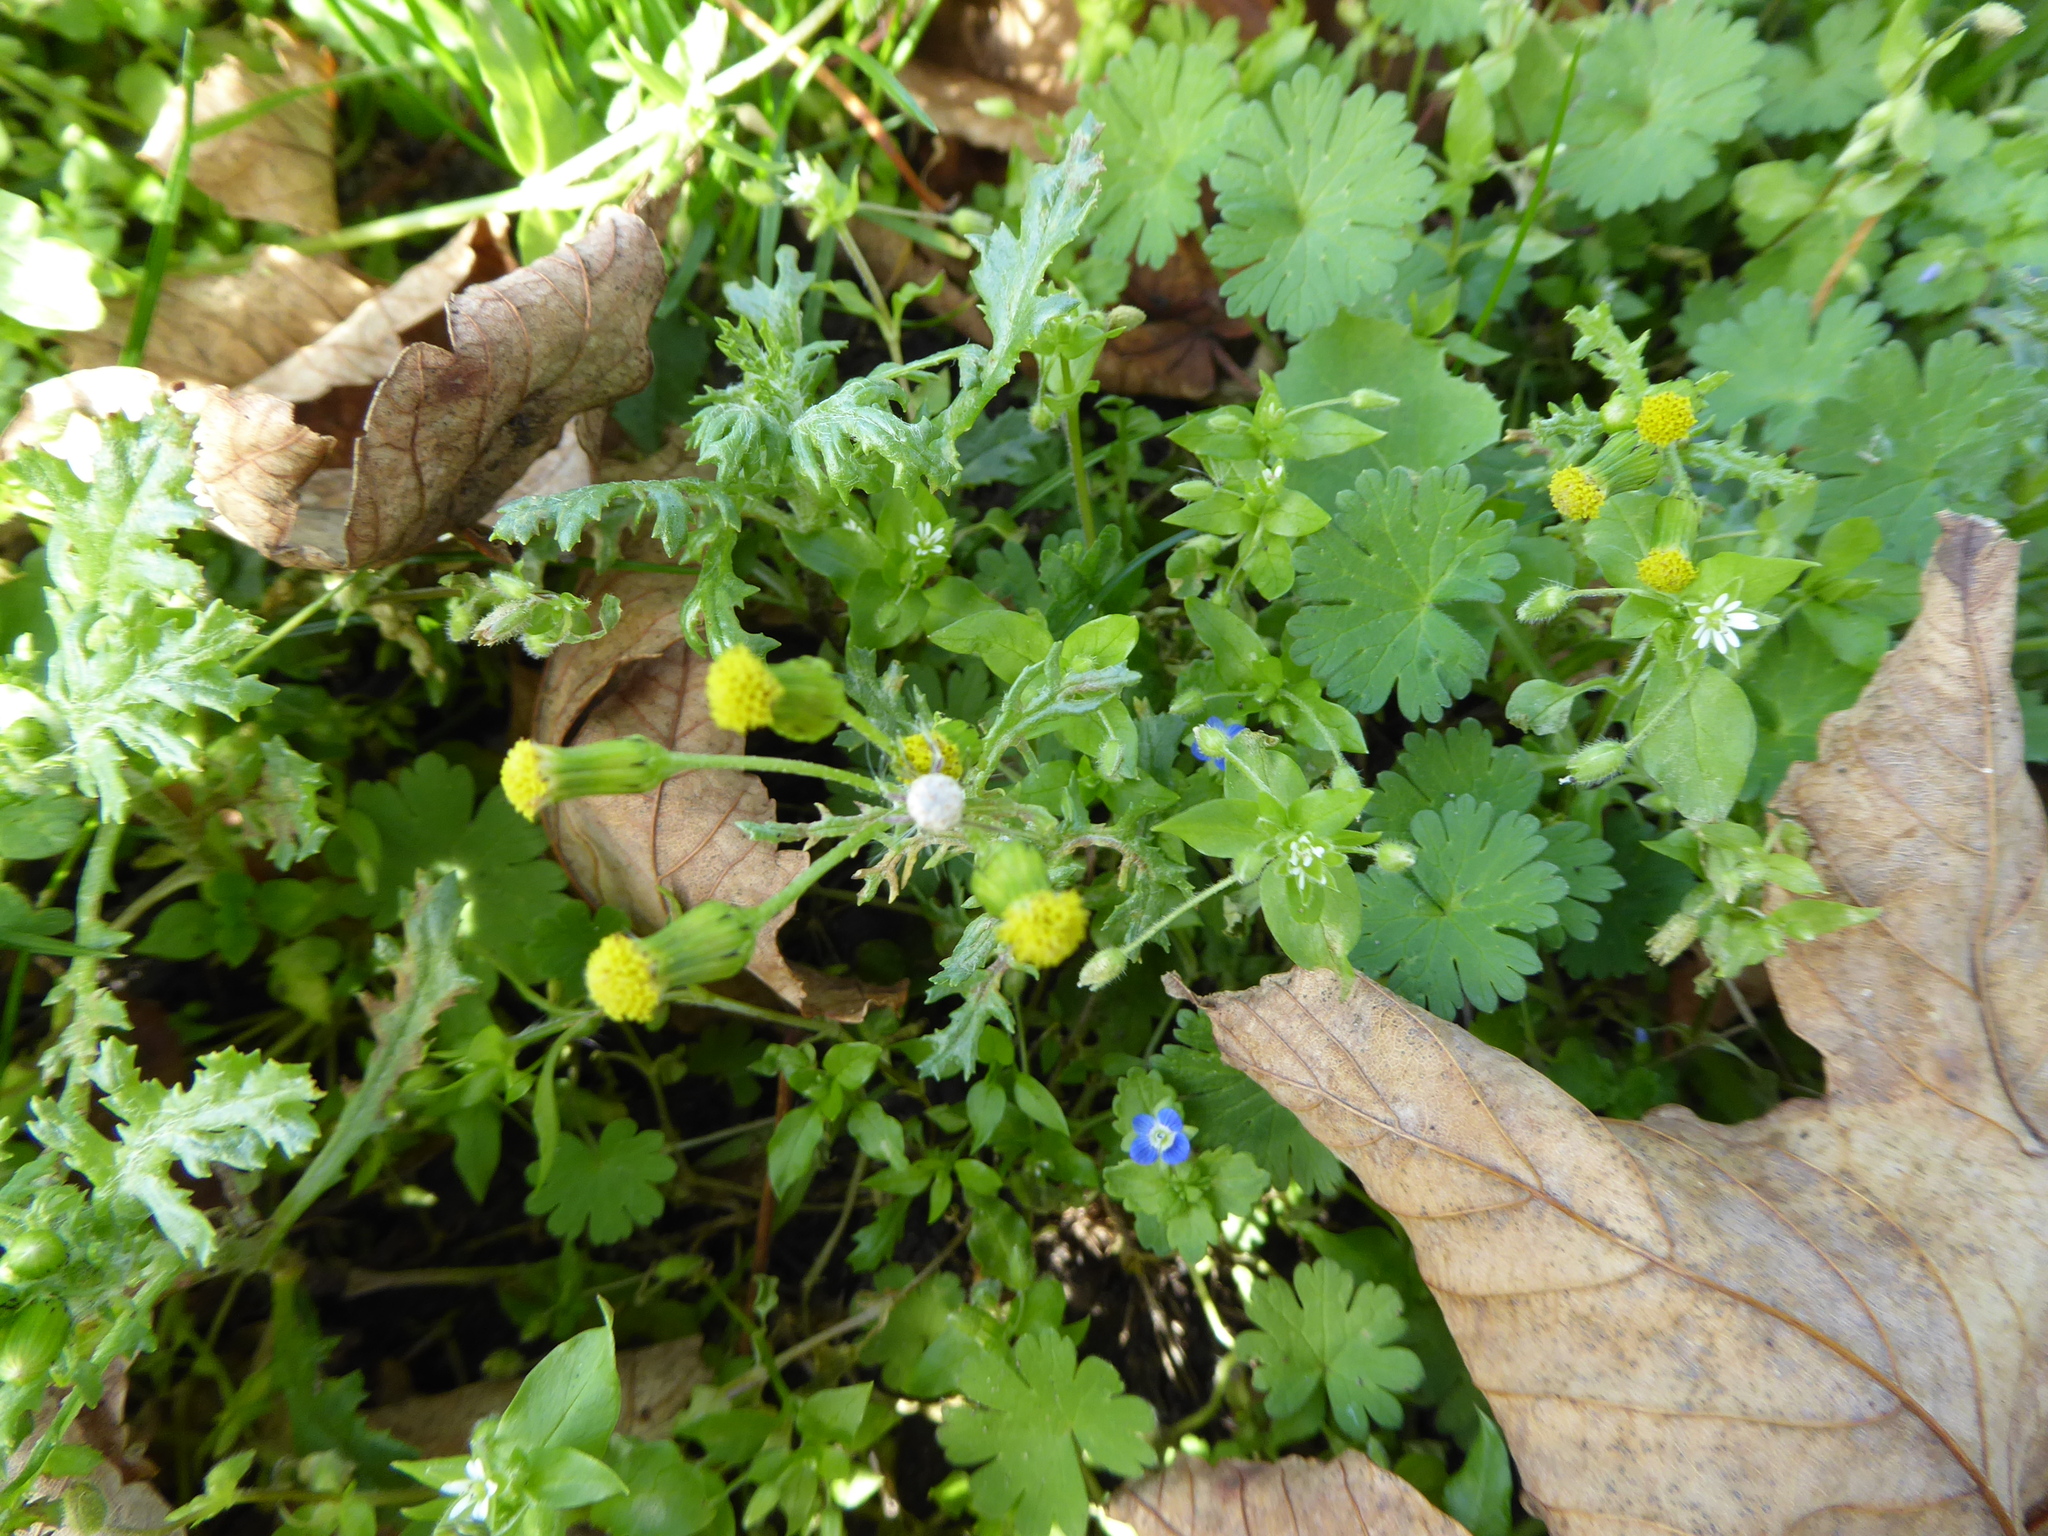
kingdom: Plantae
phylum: Tracheophyta
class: Magnoliopsida
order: Asterales
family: Asteraceae
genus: Senecio
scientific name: Senecio vulgaris
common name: Old-man-in-the-spring
